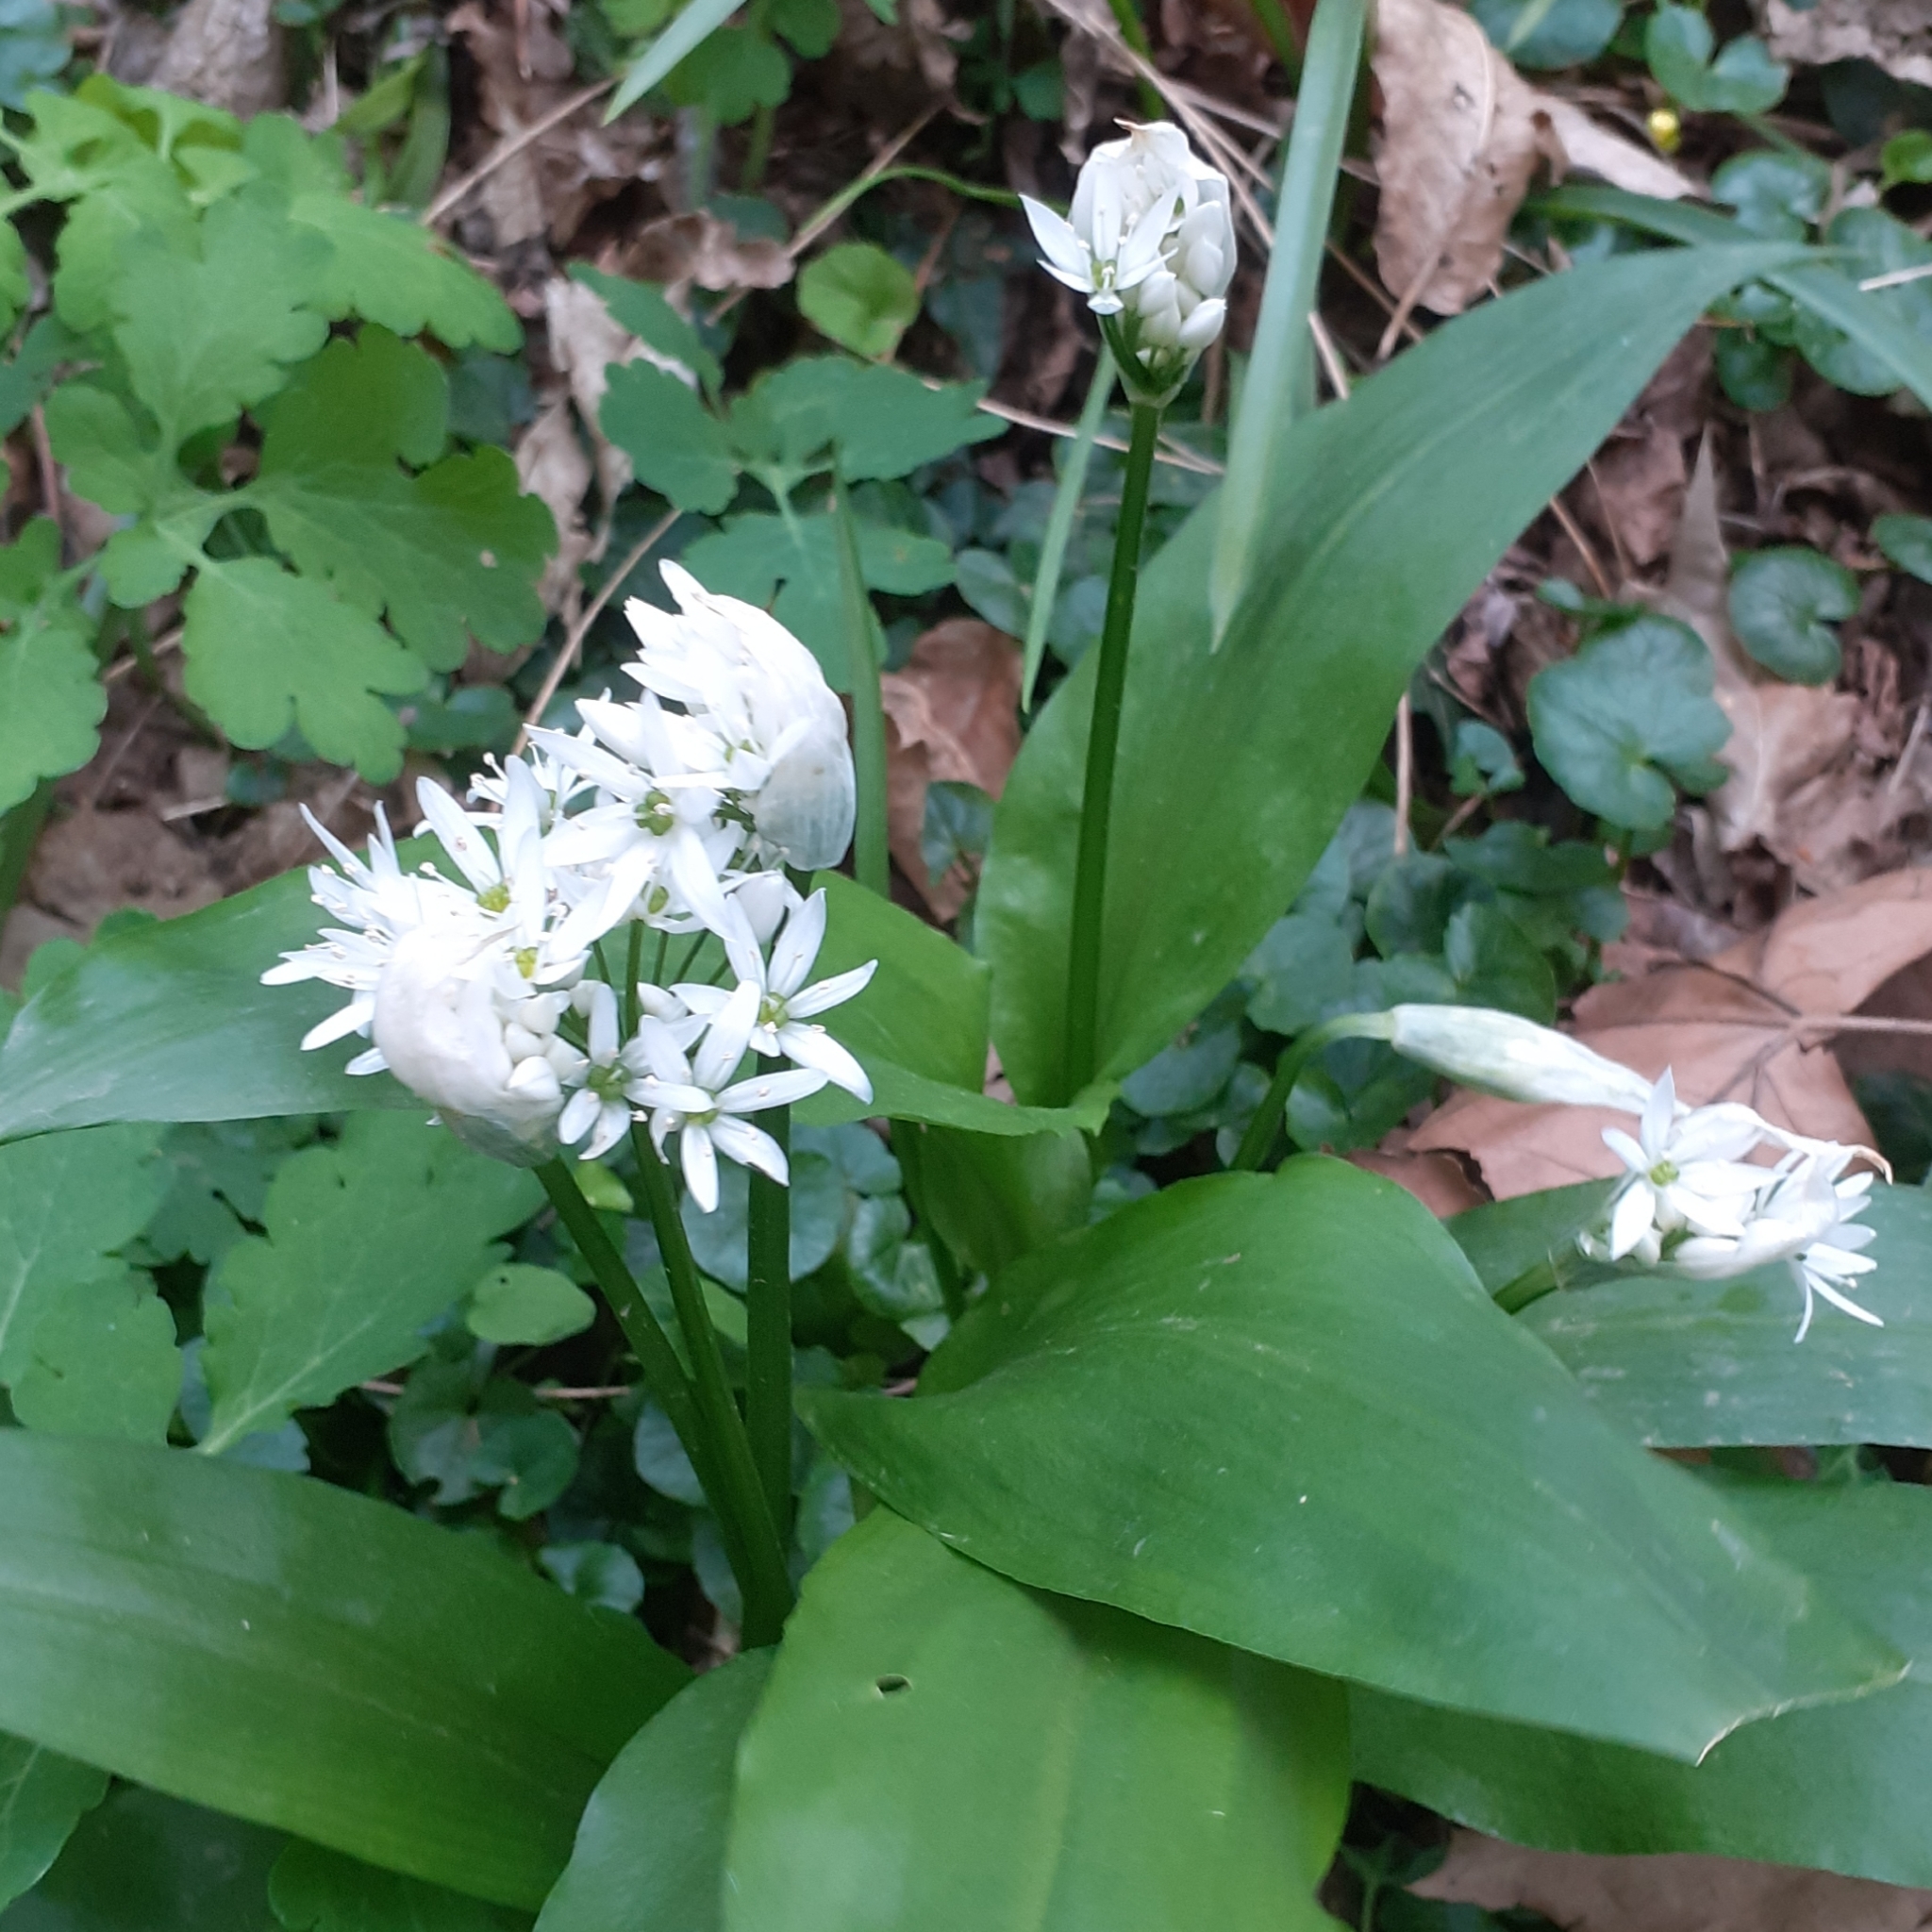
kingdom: Plantae
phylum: Tracheophyta
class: Liliopsida
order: Asparagales
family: Amaryllidaceae
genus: Allium
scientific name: Allium ursinum
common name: Ramsons
